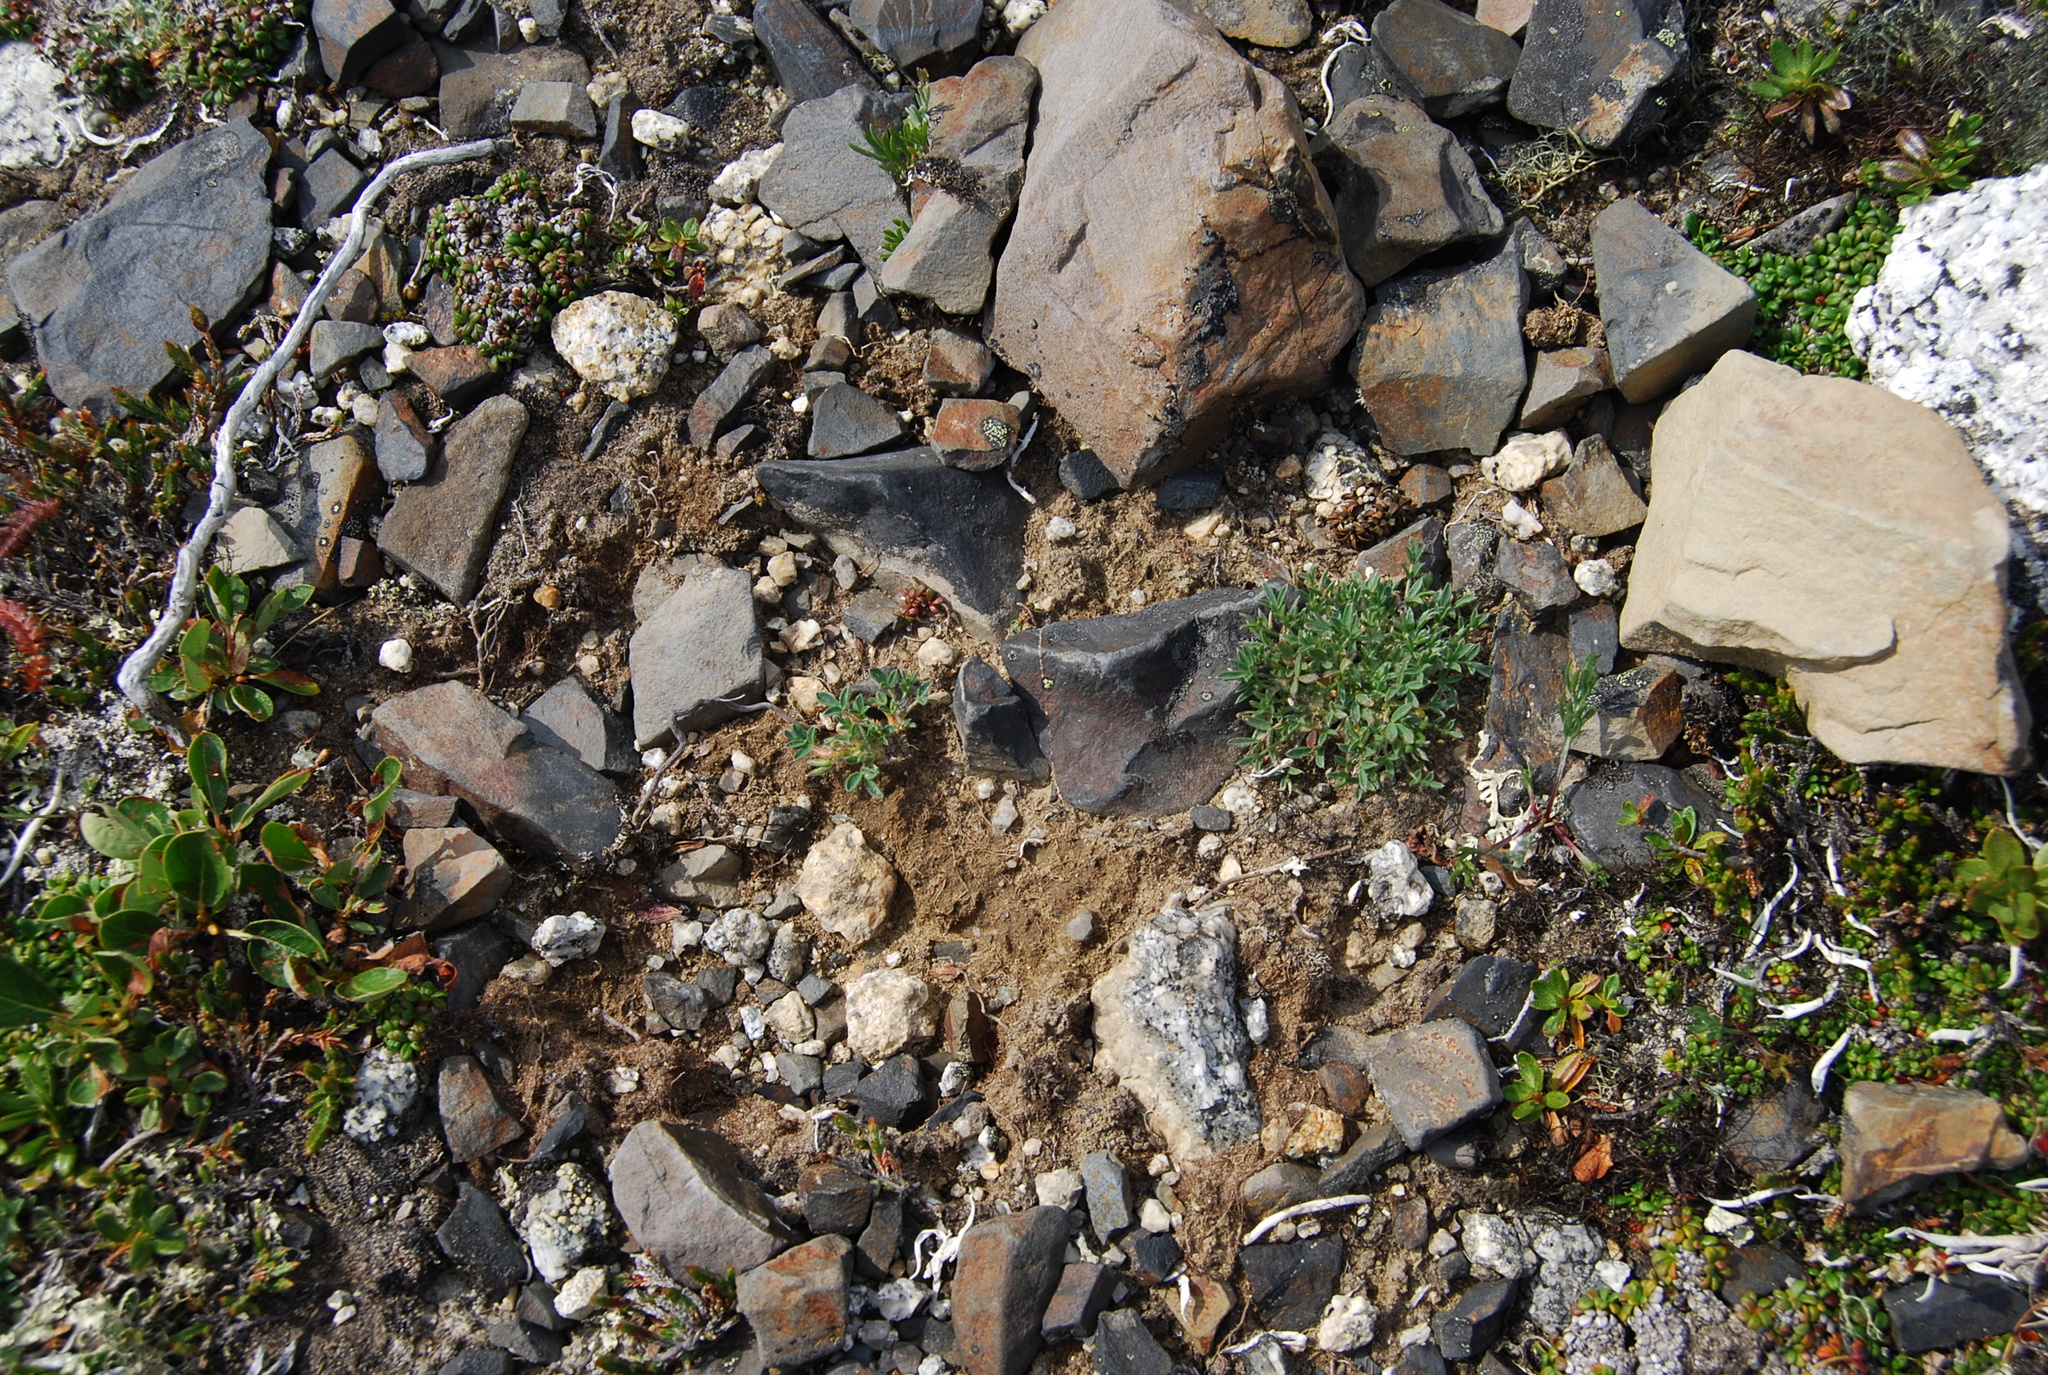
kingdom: Plantae
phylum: Tracheophyta
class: Magnoliopsida
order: Fabales
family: Fabaceae
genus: Oxytropis
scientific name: Oxytropis susumanica
